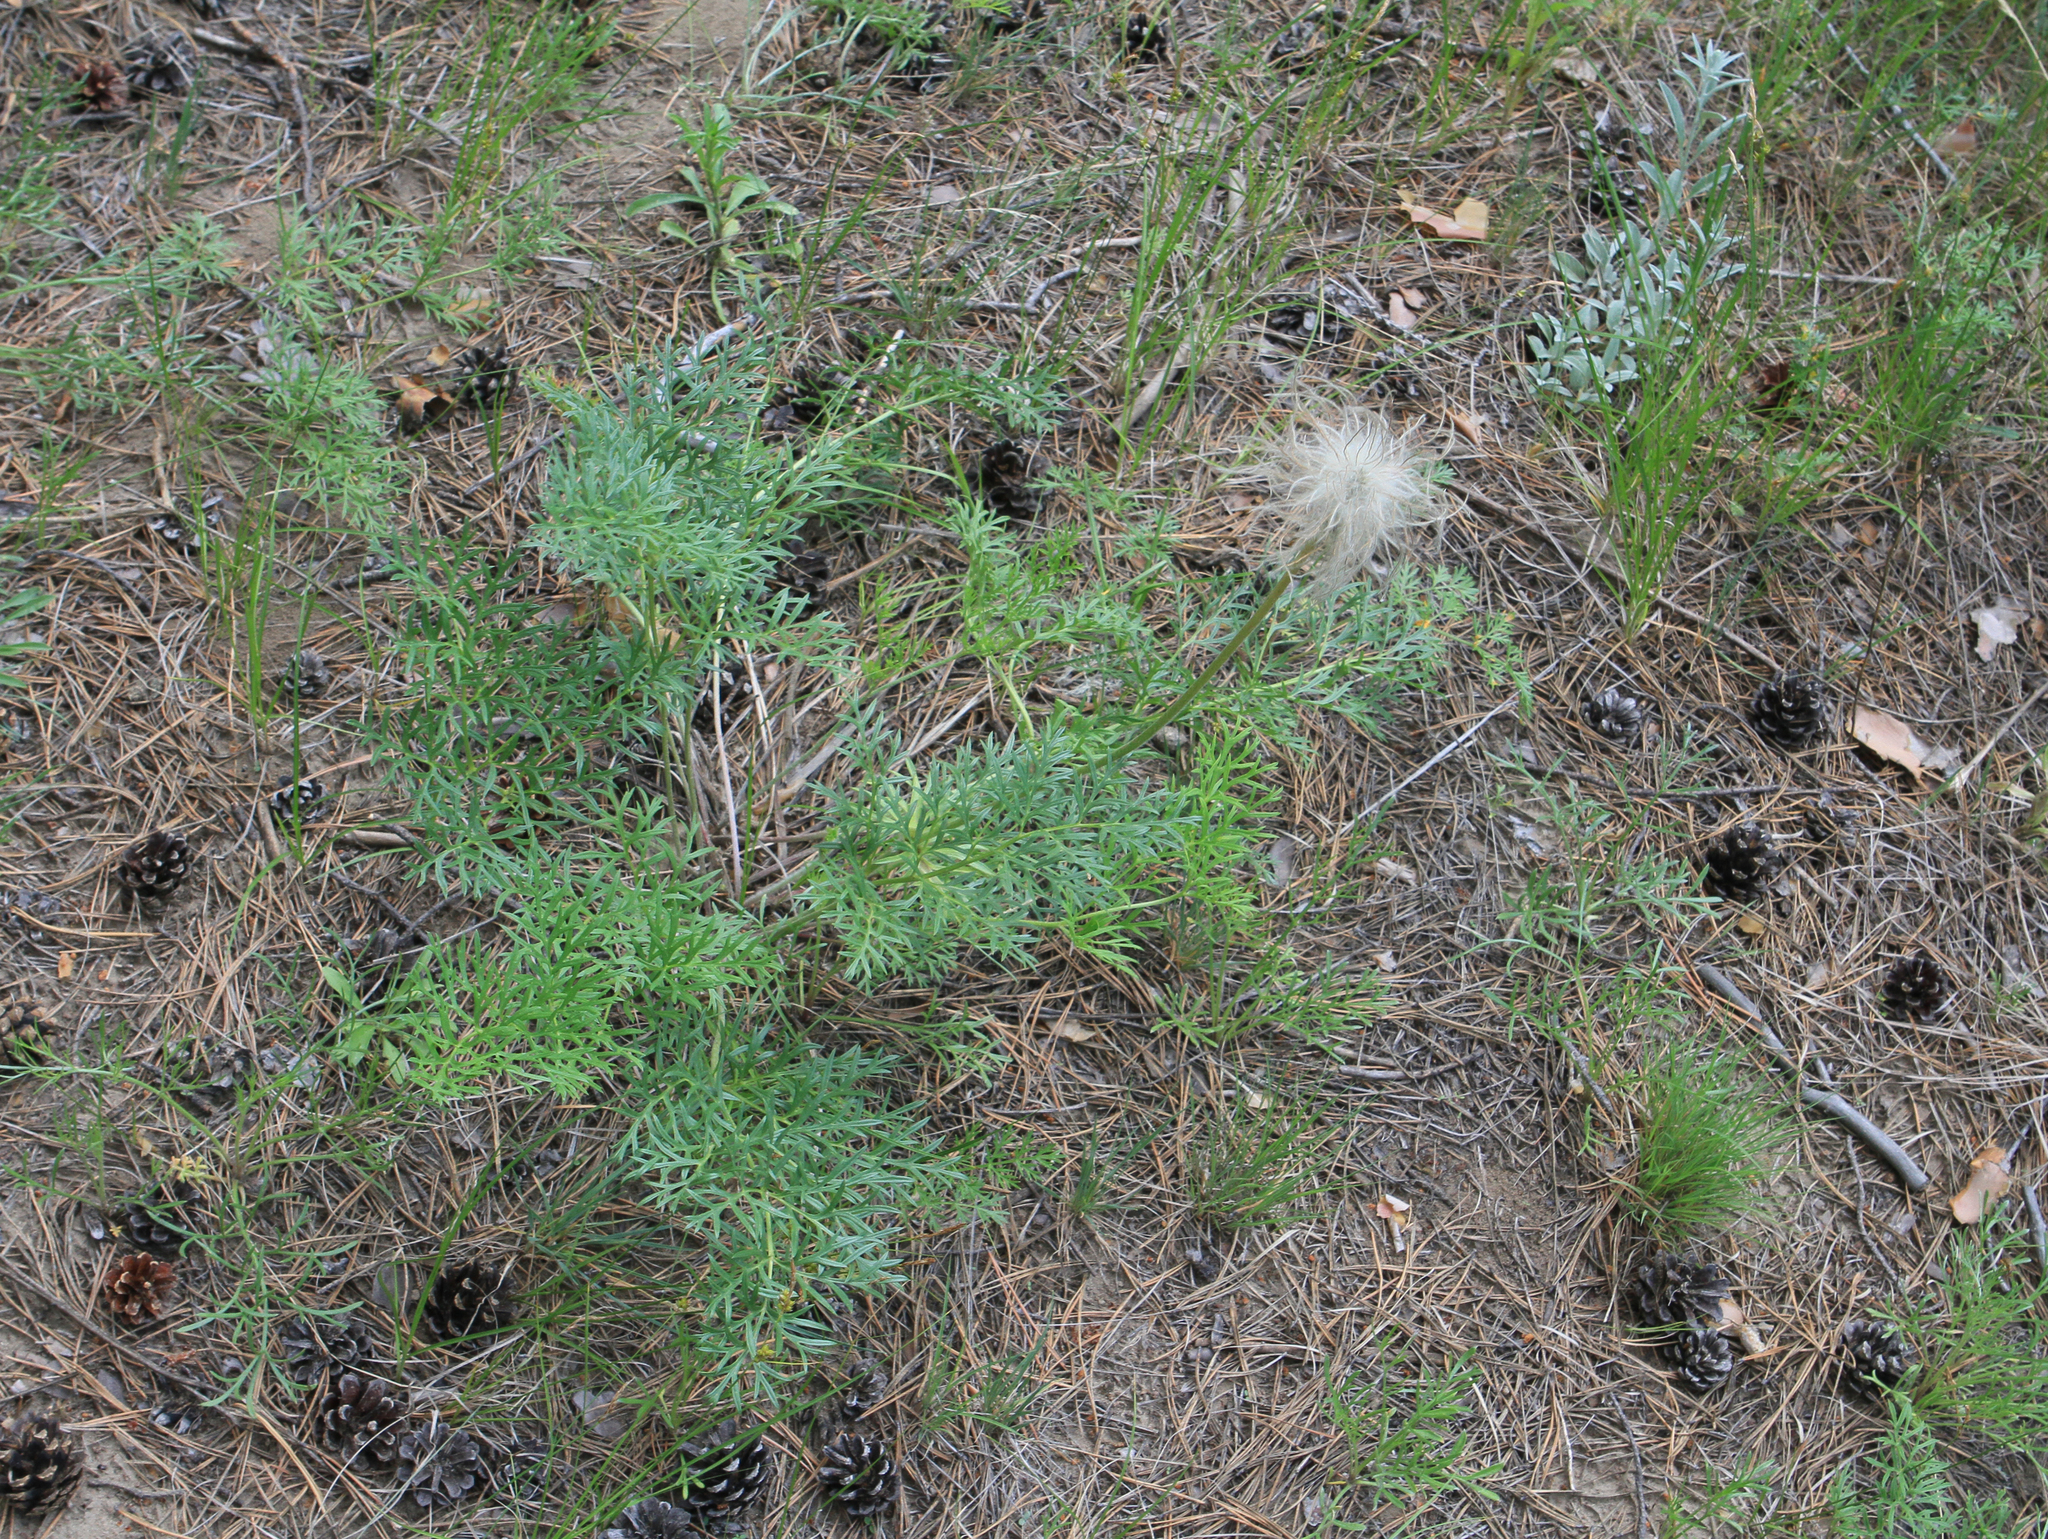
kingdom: Plantae
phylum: Tracheophyta
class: Magnoliopsida
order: Ranunculales
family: Ranunculaceae
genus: Pulsatilla
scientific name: Pulsatilla turczaninovii
